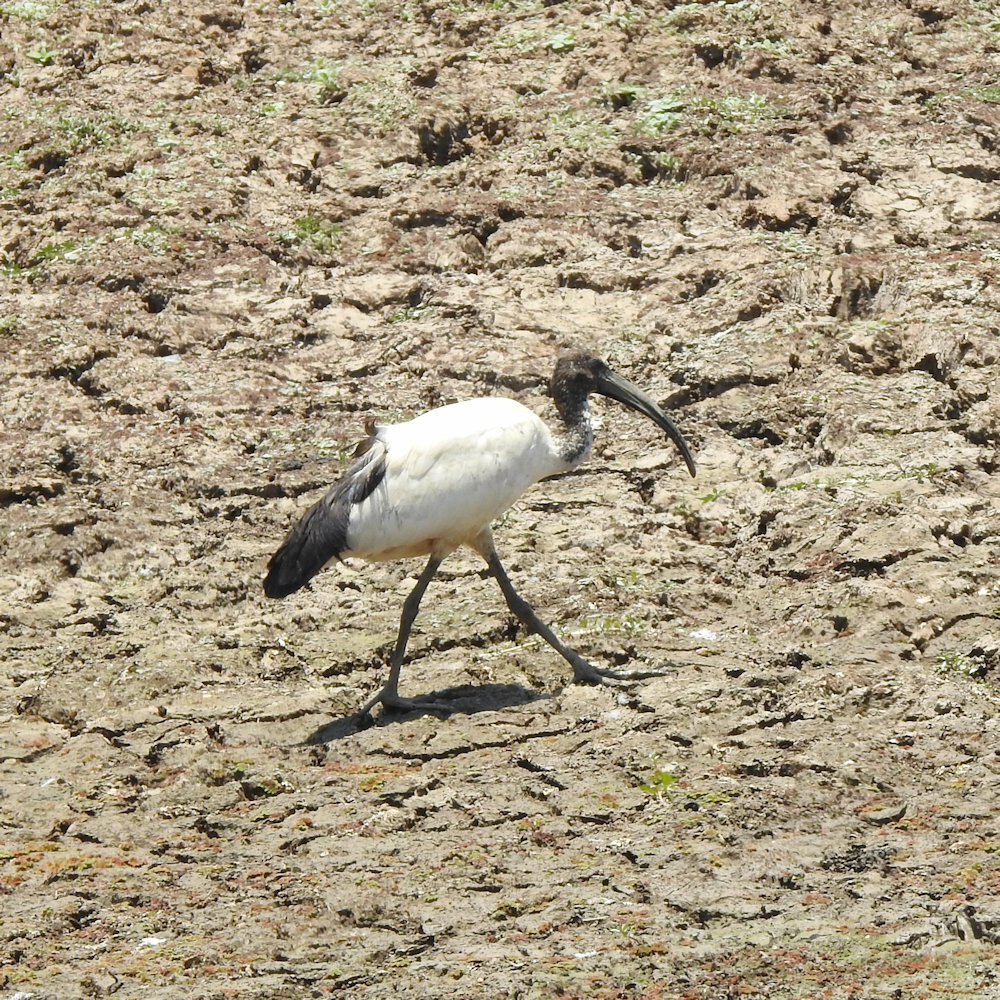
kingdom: Animalia
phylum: Chordata
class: Aves
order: Pelecaniformes
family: Threskiornithidae
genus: Threskiornis
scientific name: Threskiornis aethiopicus
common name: Sacred ibis
